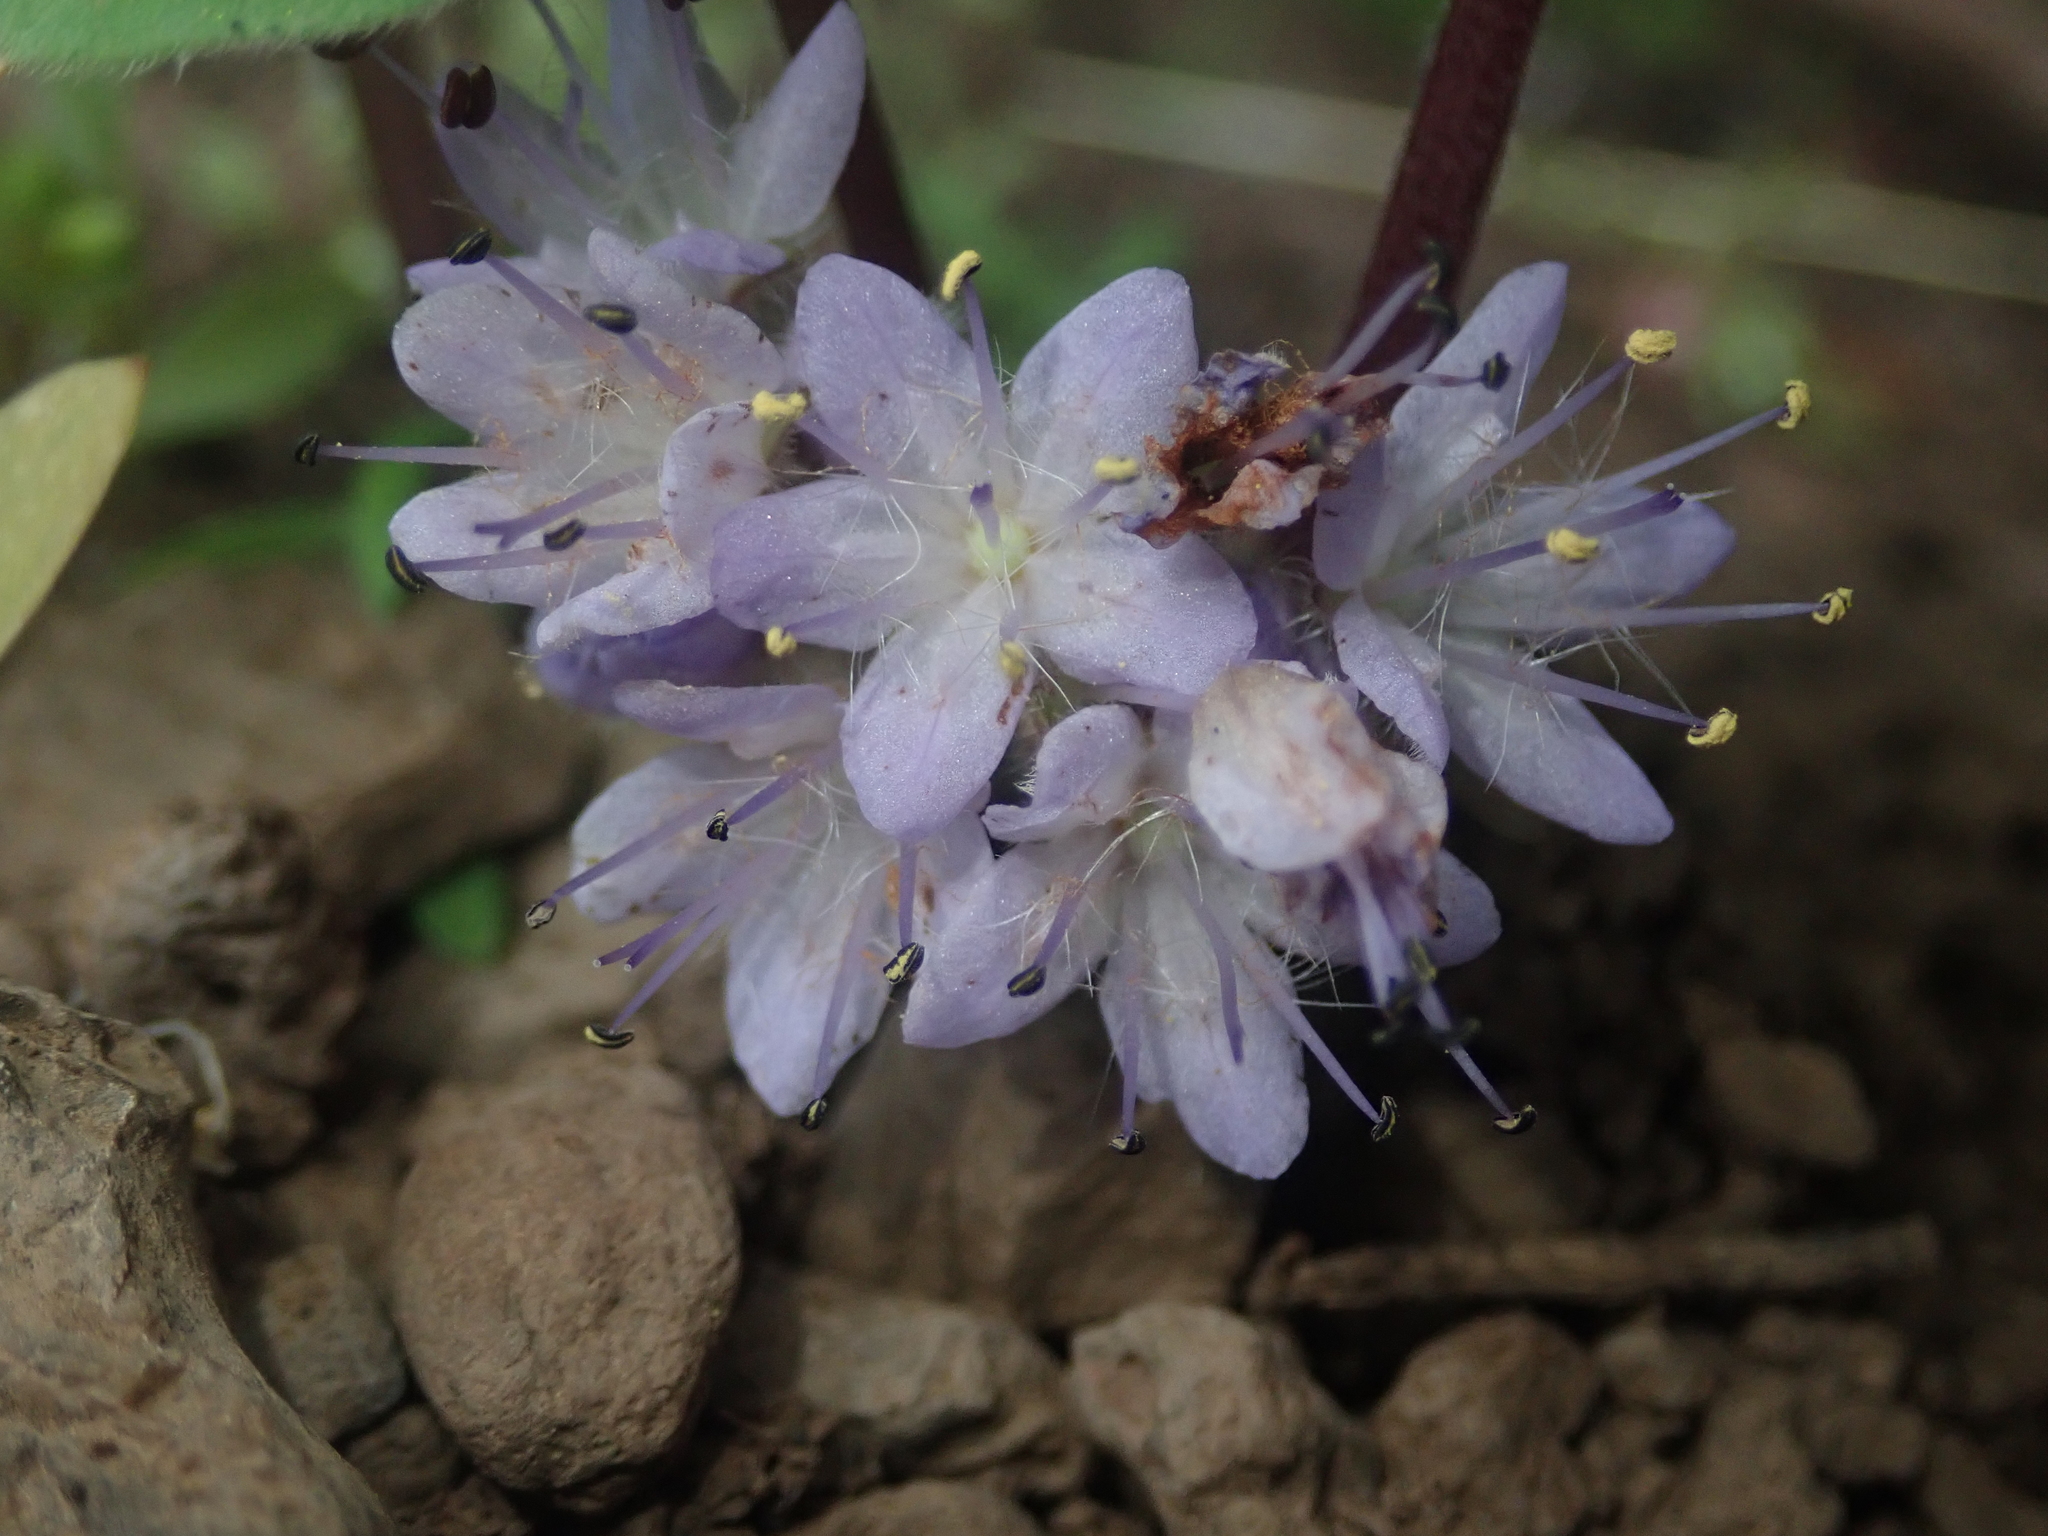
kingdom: Plantae
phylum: Tracheophyta
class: Magnoliopsida
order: Boraginales
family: Hydrophyllaceae
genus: Hydrophyllum
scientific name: Hydrophyllum alpestre
